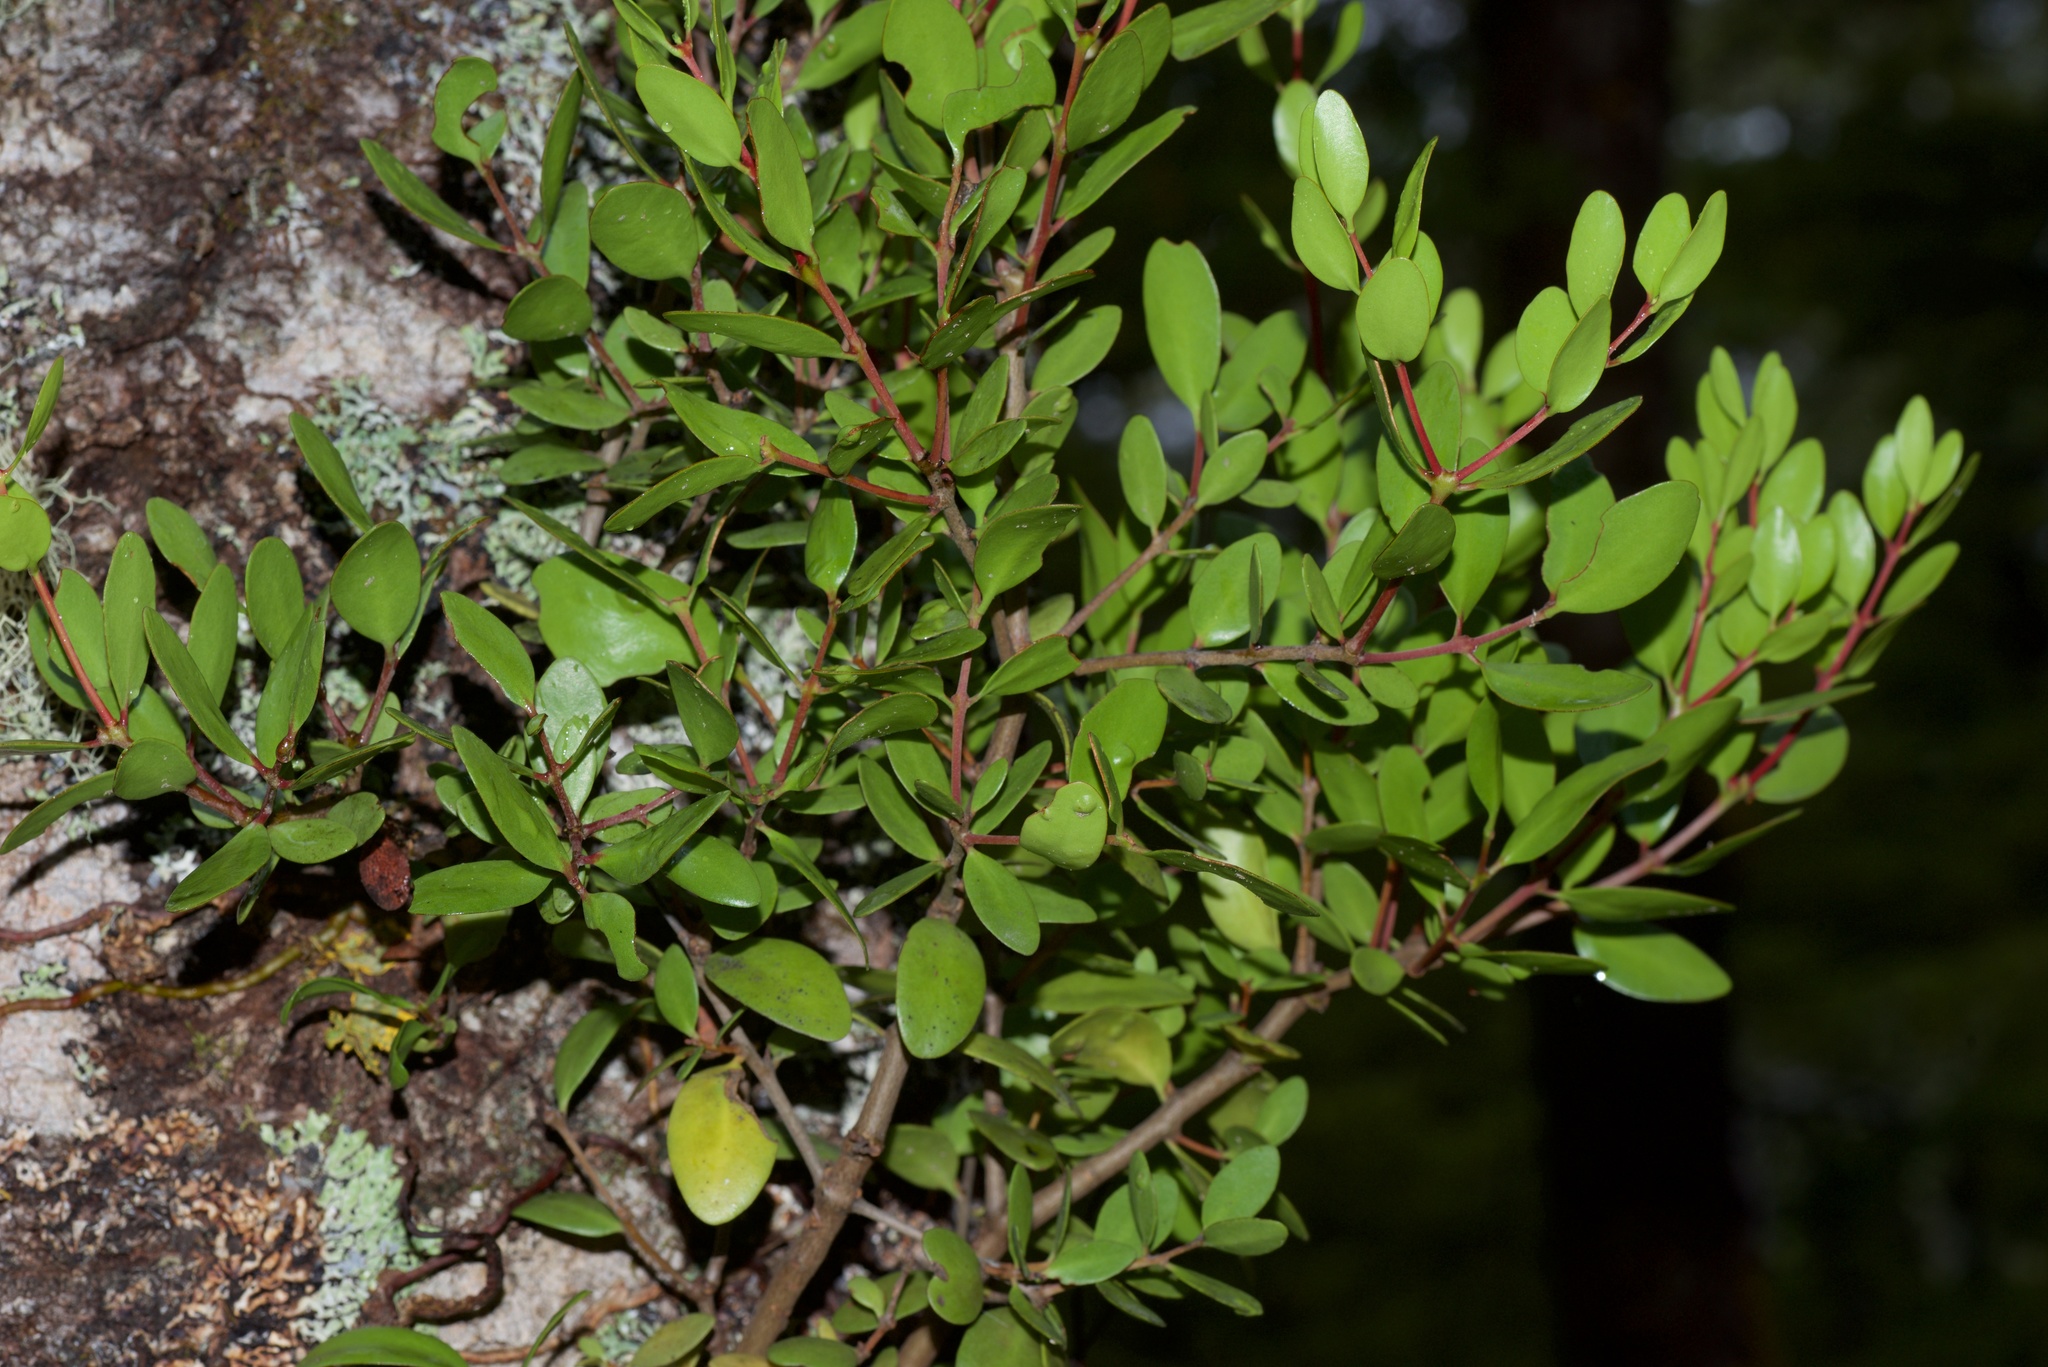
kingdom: Plantae
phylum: Tracheophyta
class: Magnoliopsida
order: Santalales
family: Loranthaceae
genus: Peraxilla
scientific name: Peraxilla tetrapetala
